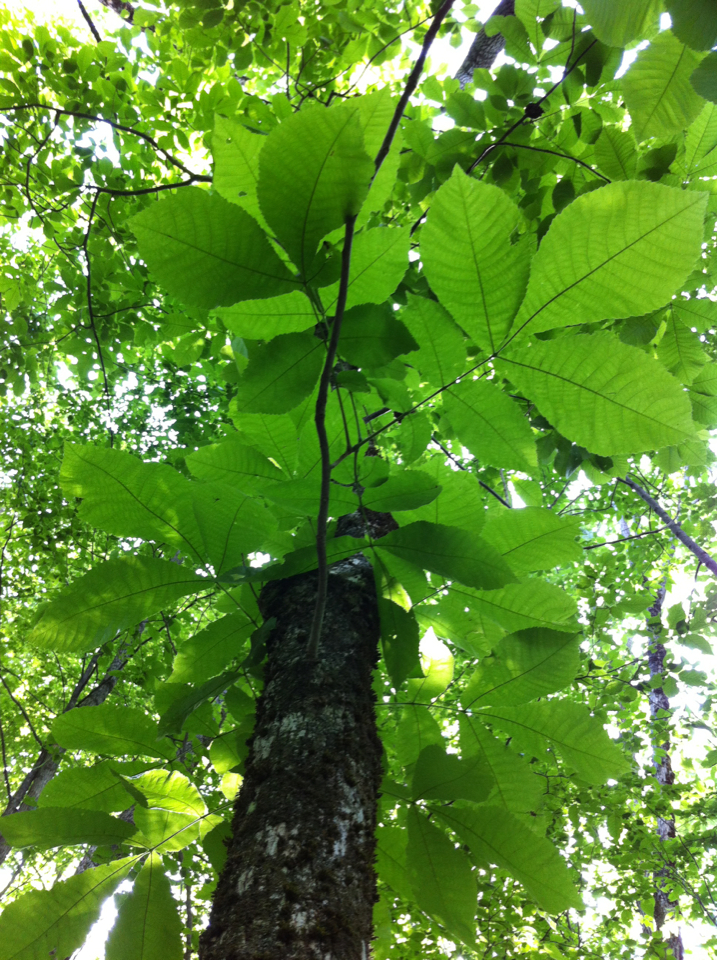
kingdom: Plantae
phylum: Tracheophyta
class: Magnoliopsida
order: Fagales
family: Juglandaceae
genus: Carya
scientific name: Carya cordiformis
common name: Bitternut hickory
